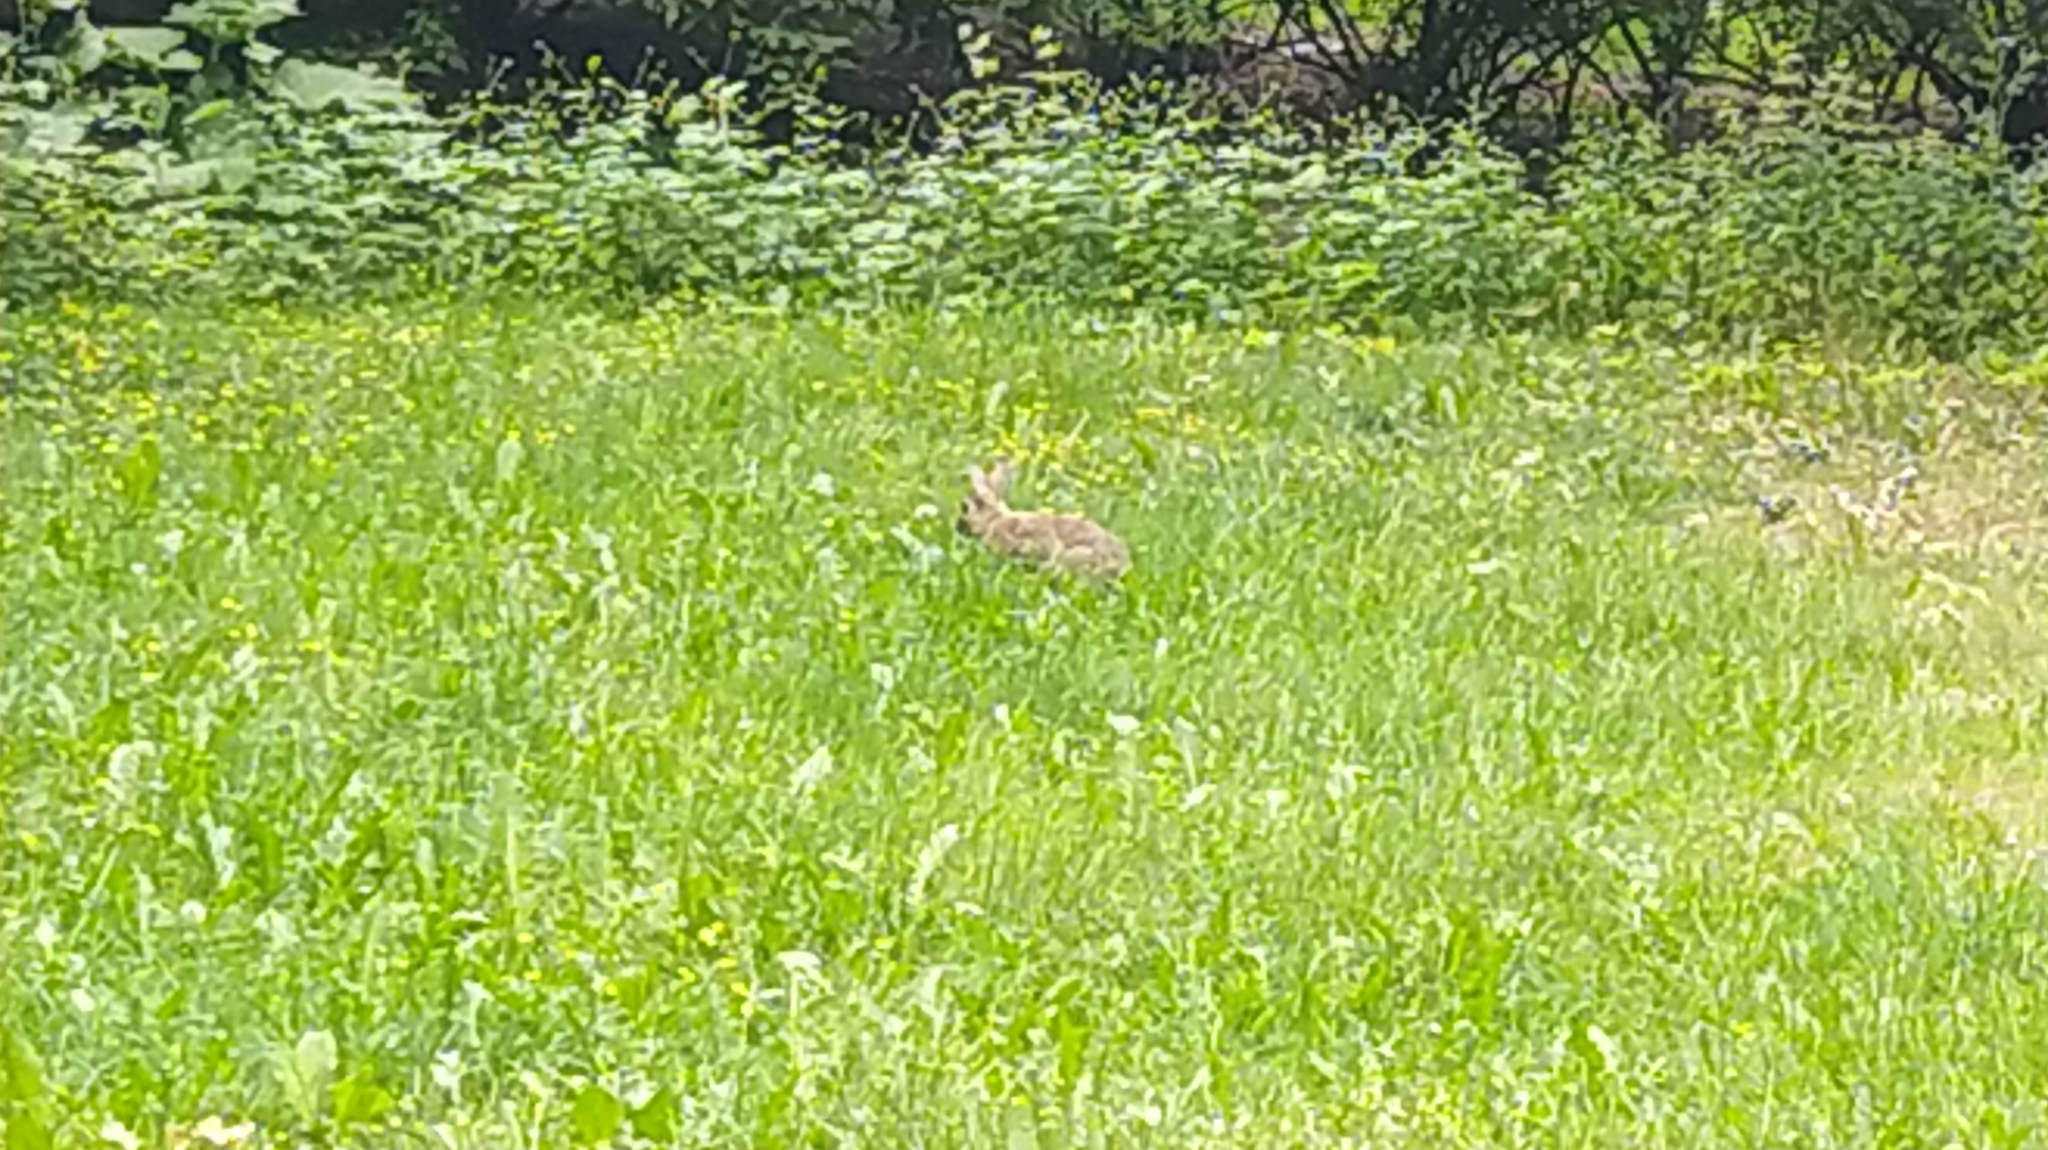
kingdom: Animalia
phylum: Chordata
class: Mammalia
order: Lagomorpha
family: Leporidae
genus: Oryctolagus
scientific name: Oryctolagus cuniculus
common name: European rabbit
